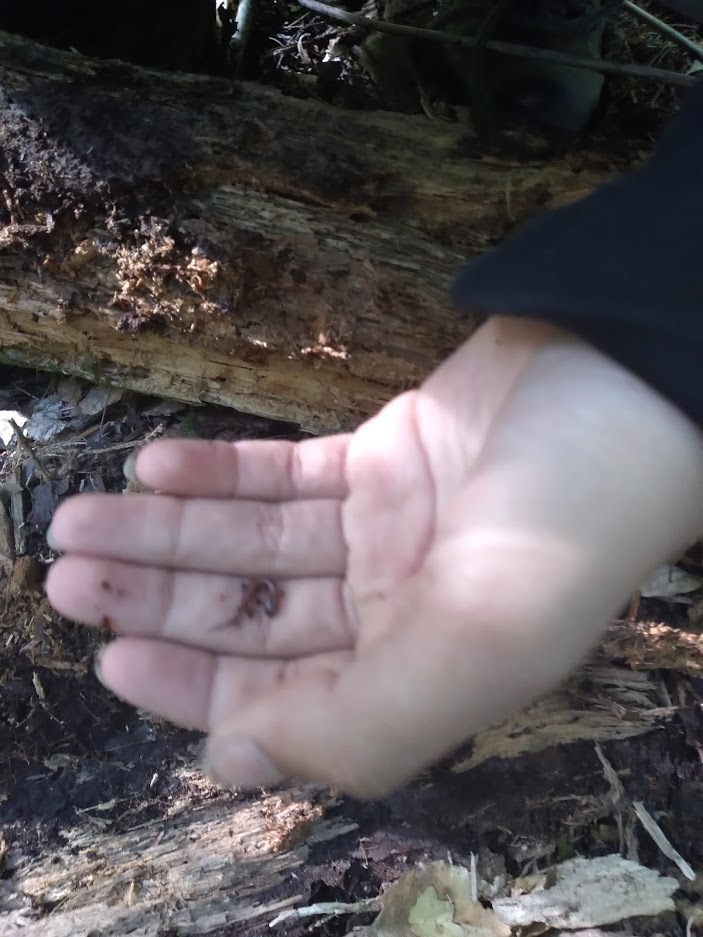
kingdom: Animalia
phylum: Chordata
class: Amphibia
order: Caudata
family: Plethodontidae
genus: Plethodon
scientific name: Plethodon cinereus
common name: Redback salamander
